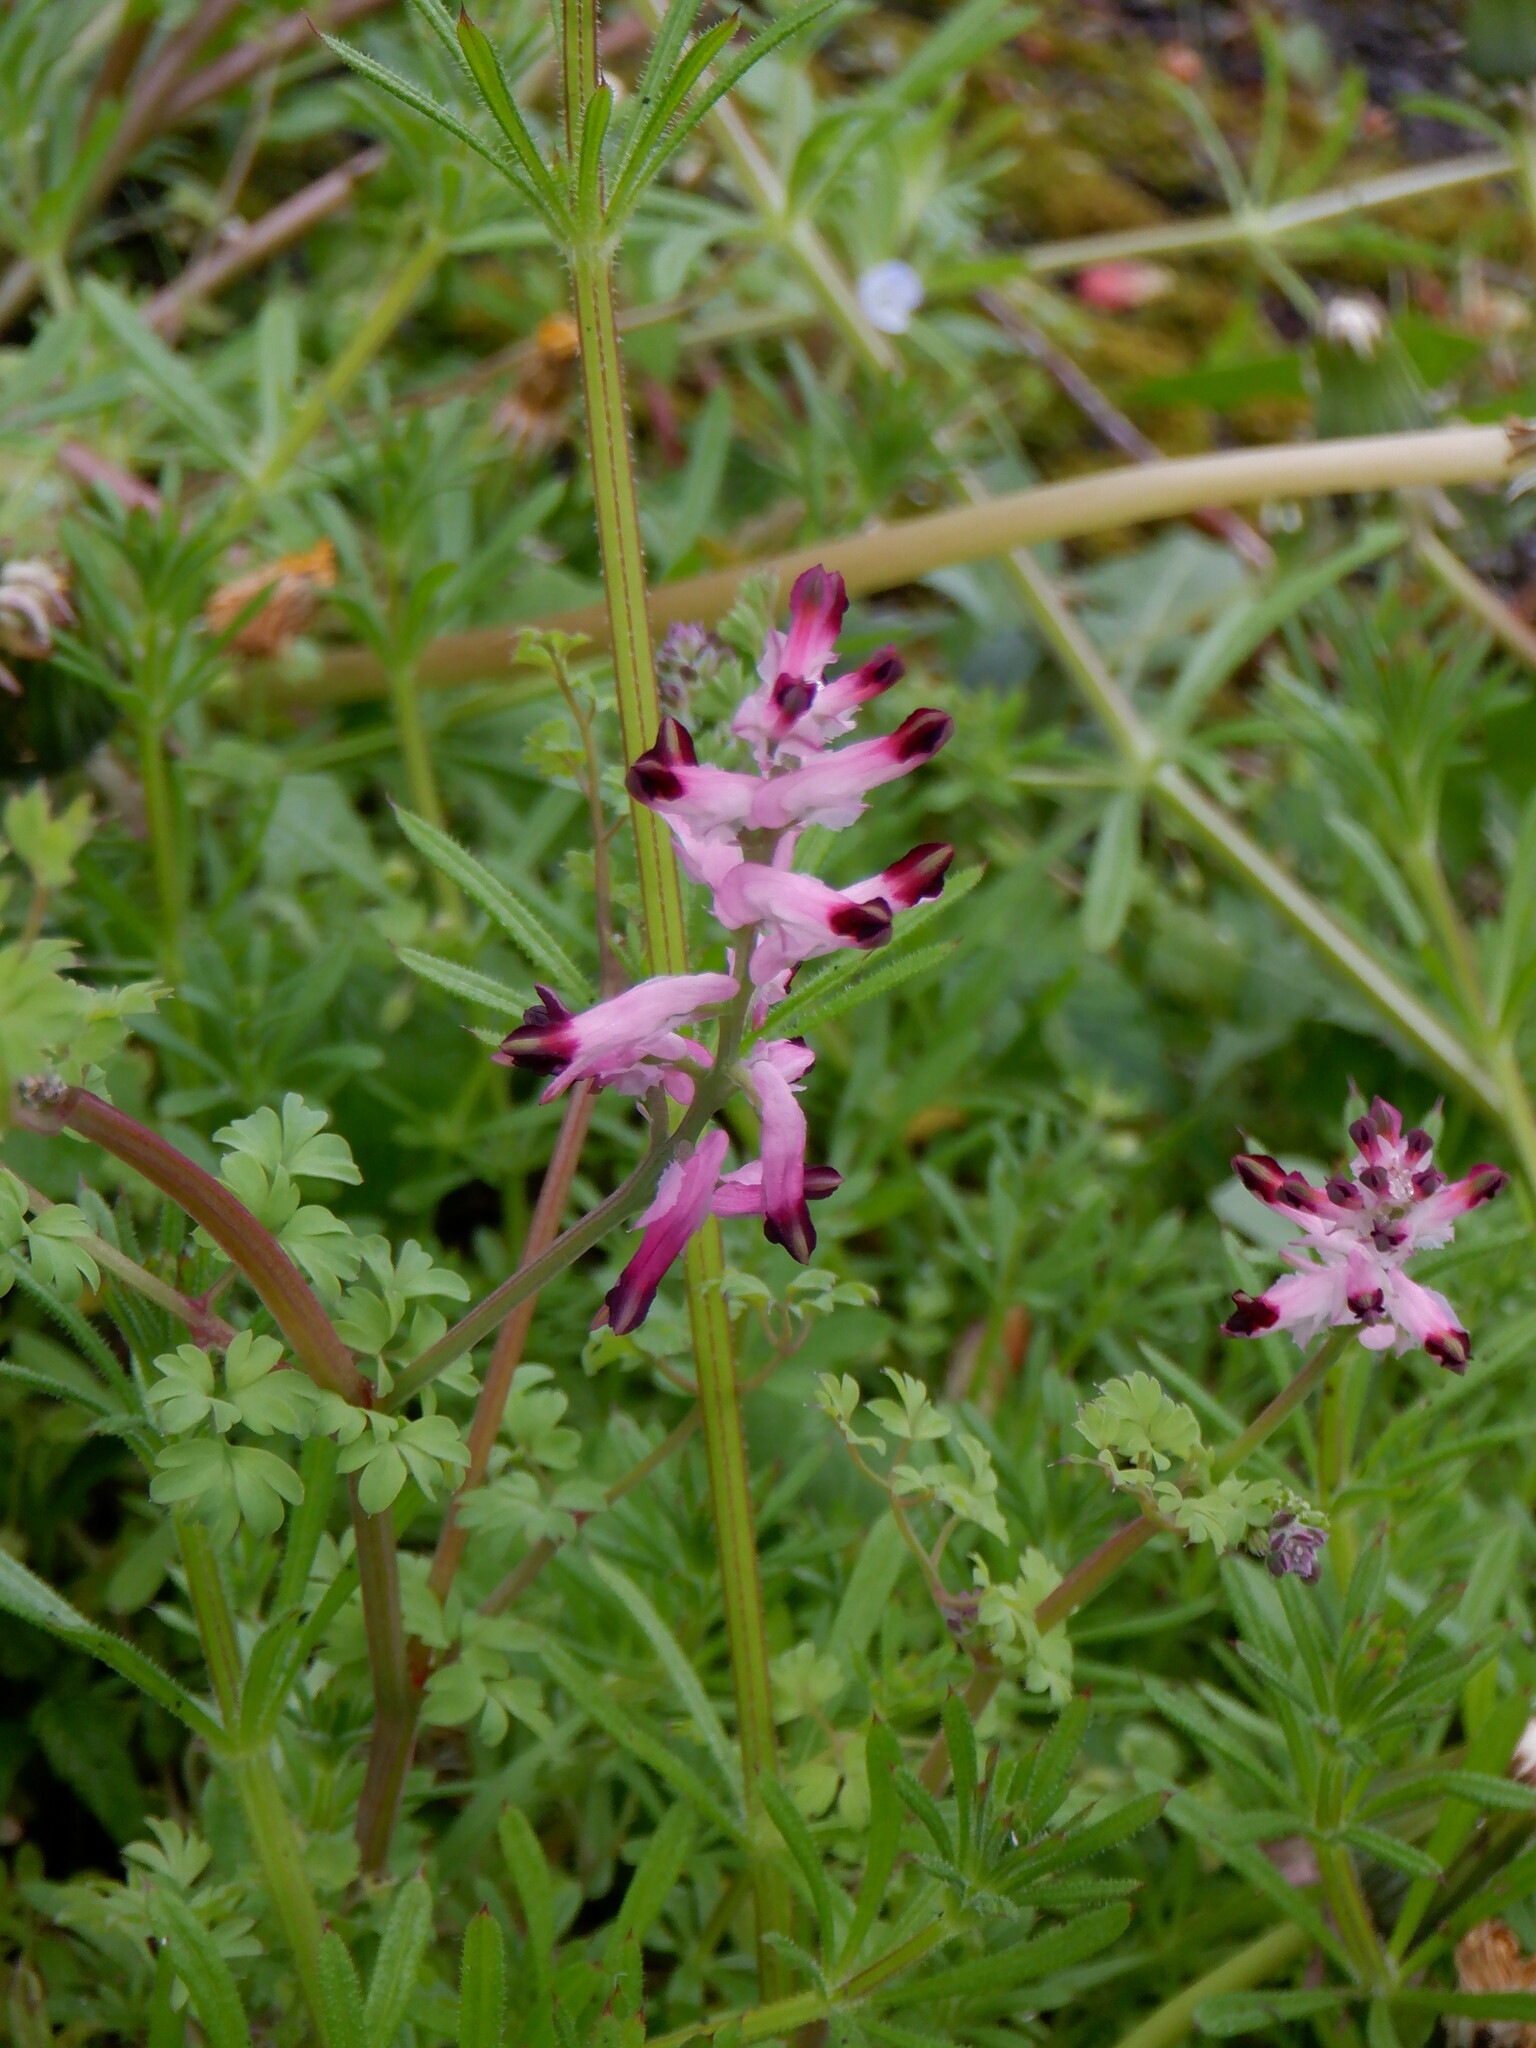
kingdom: Plantae
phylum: Tracheophyta
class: Magnoliopsida
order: Ranunculales
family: Papaveraceae
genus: Fumaria
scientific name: Fumaria muralis
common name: Common ramping-fumitory
